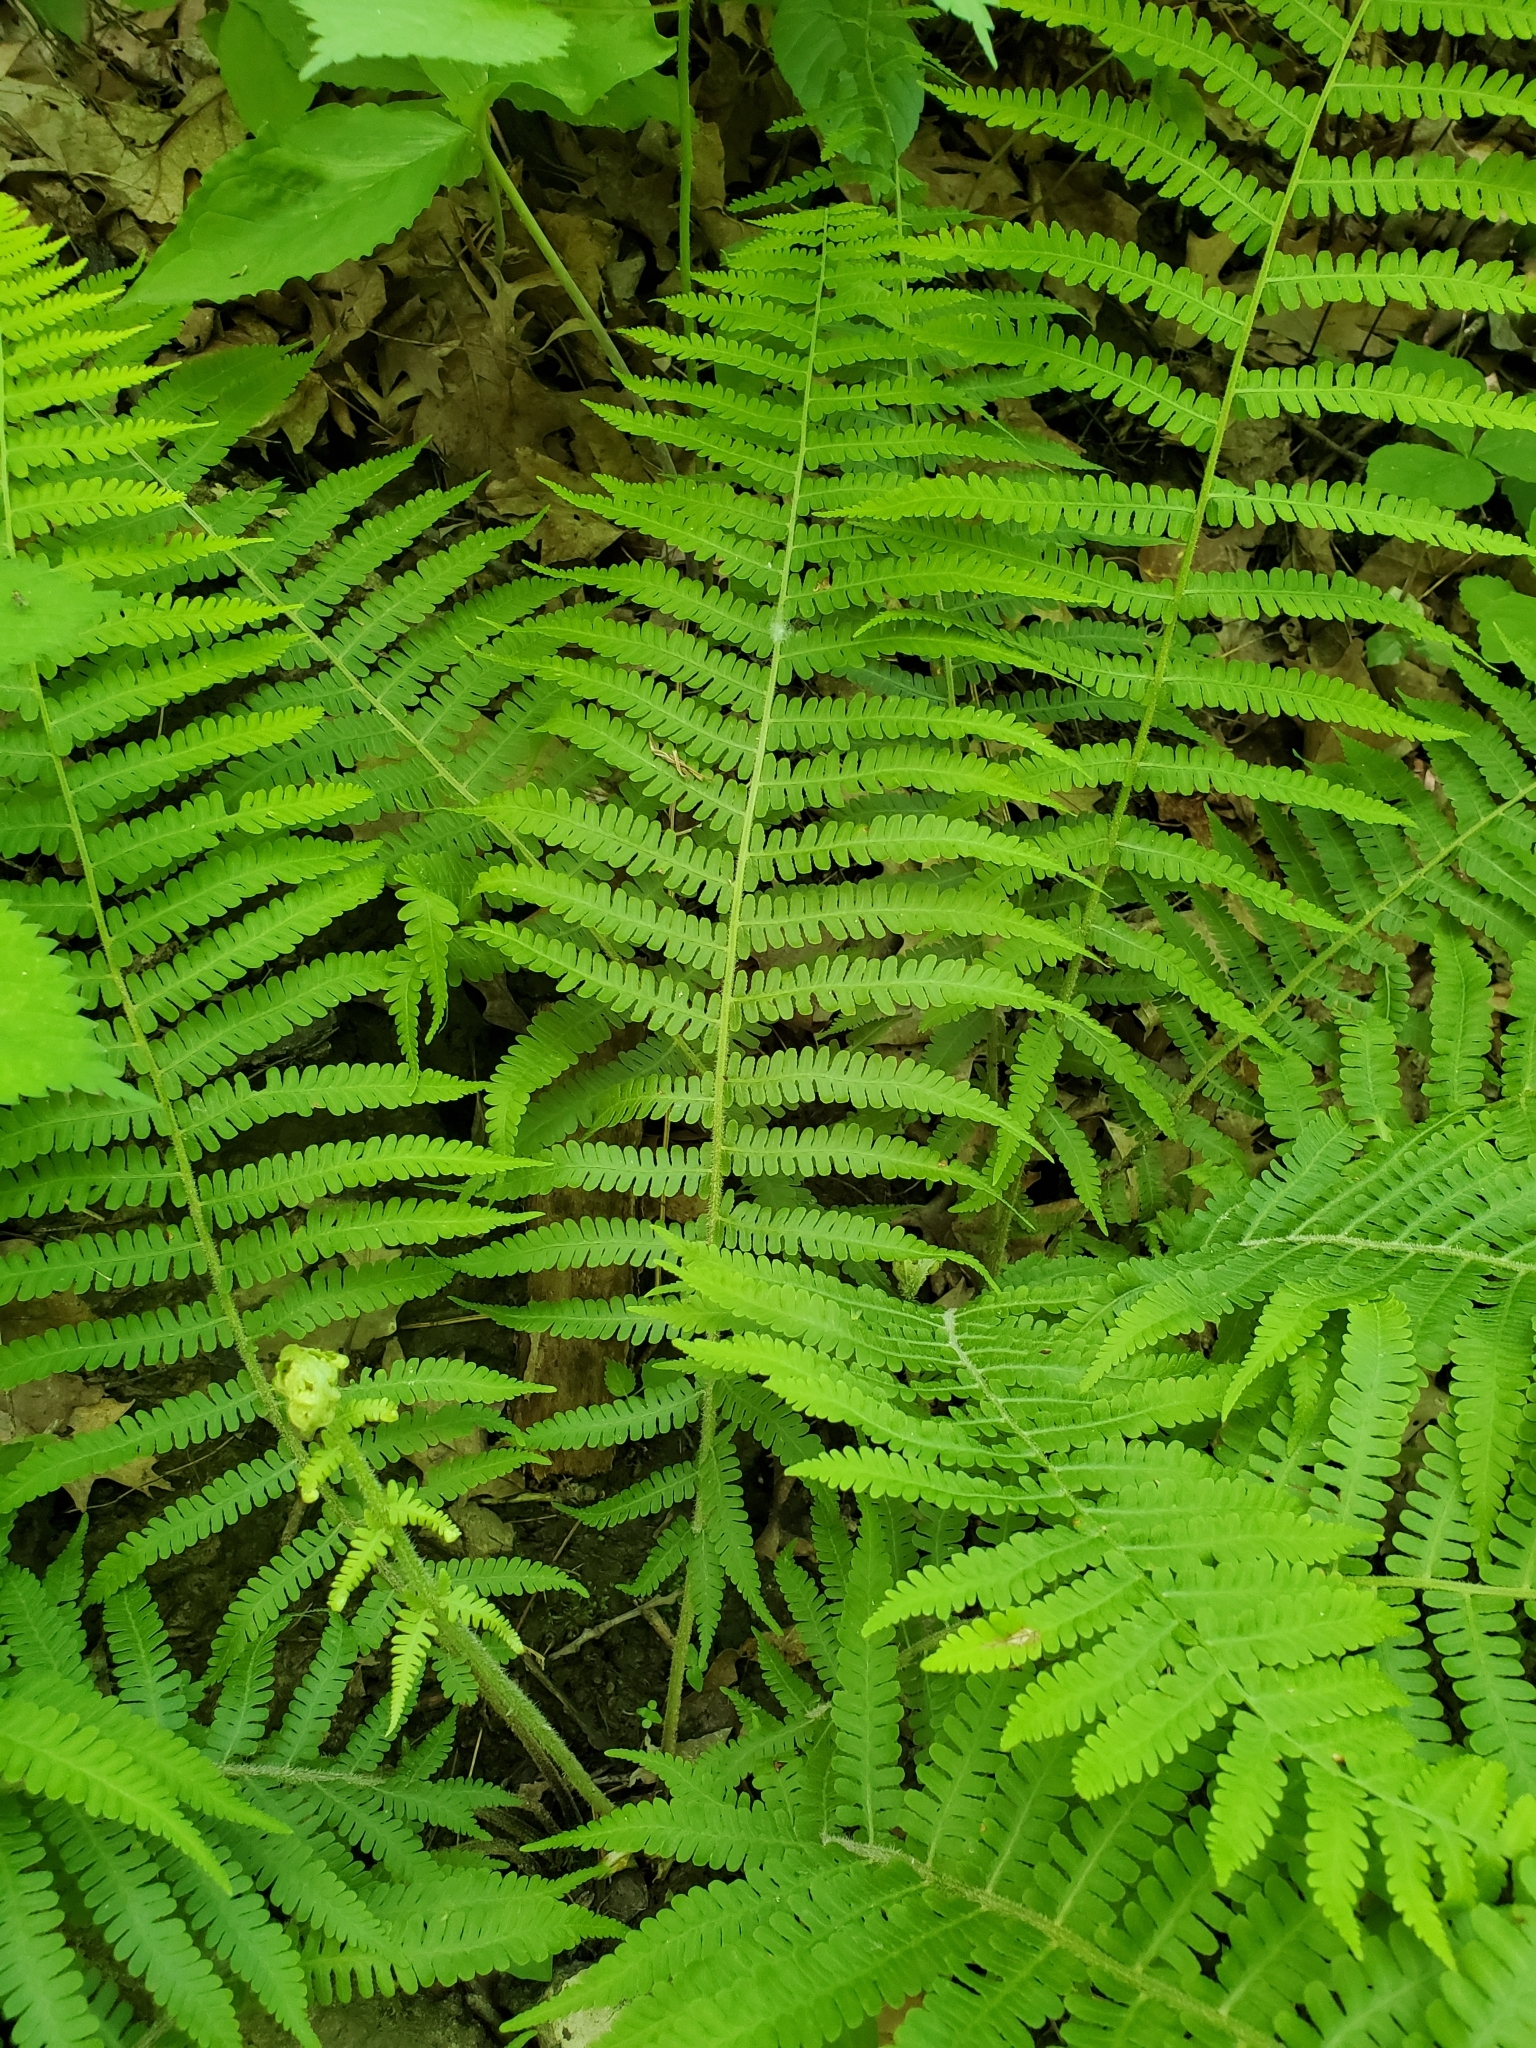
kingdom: Plantae
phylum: Tracheophyta
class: Polypodiopsida
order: Polypodiales
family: Athyriaceae
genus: Deparia
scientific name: Deparia acrostichoides
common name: Silver false spleenwort
